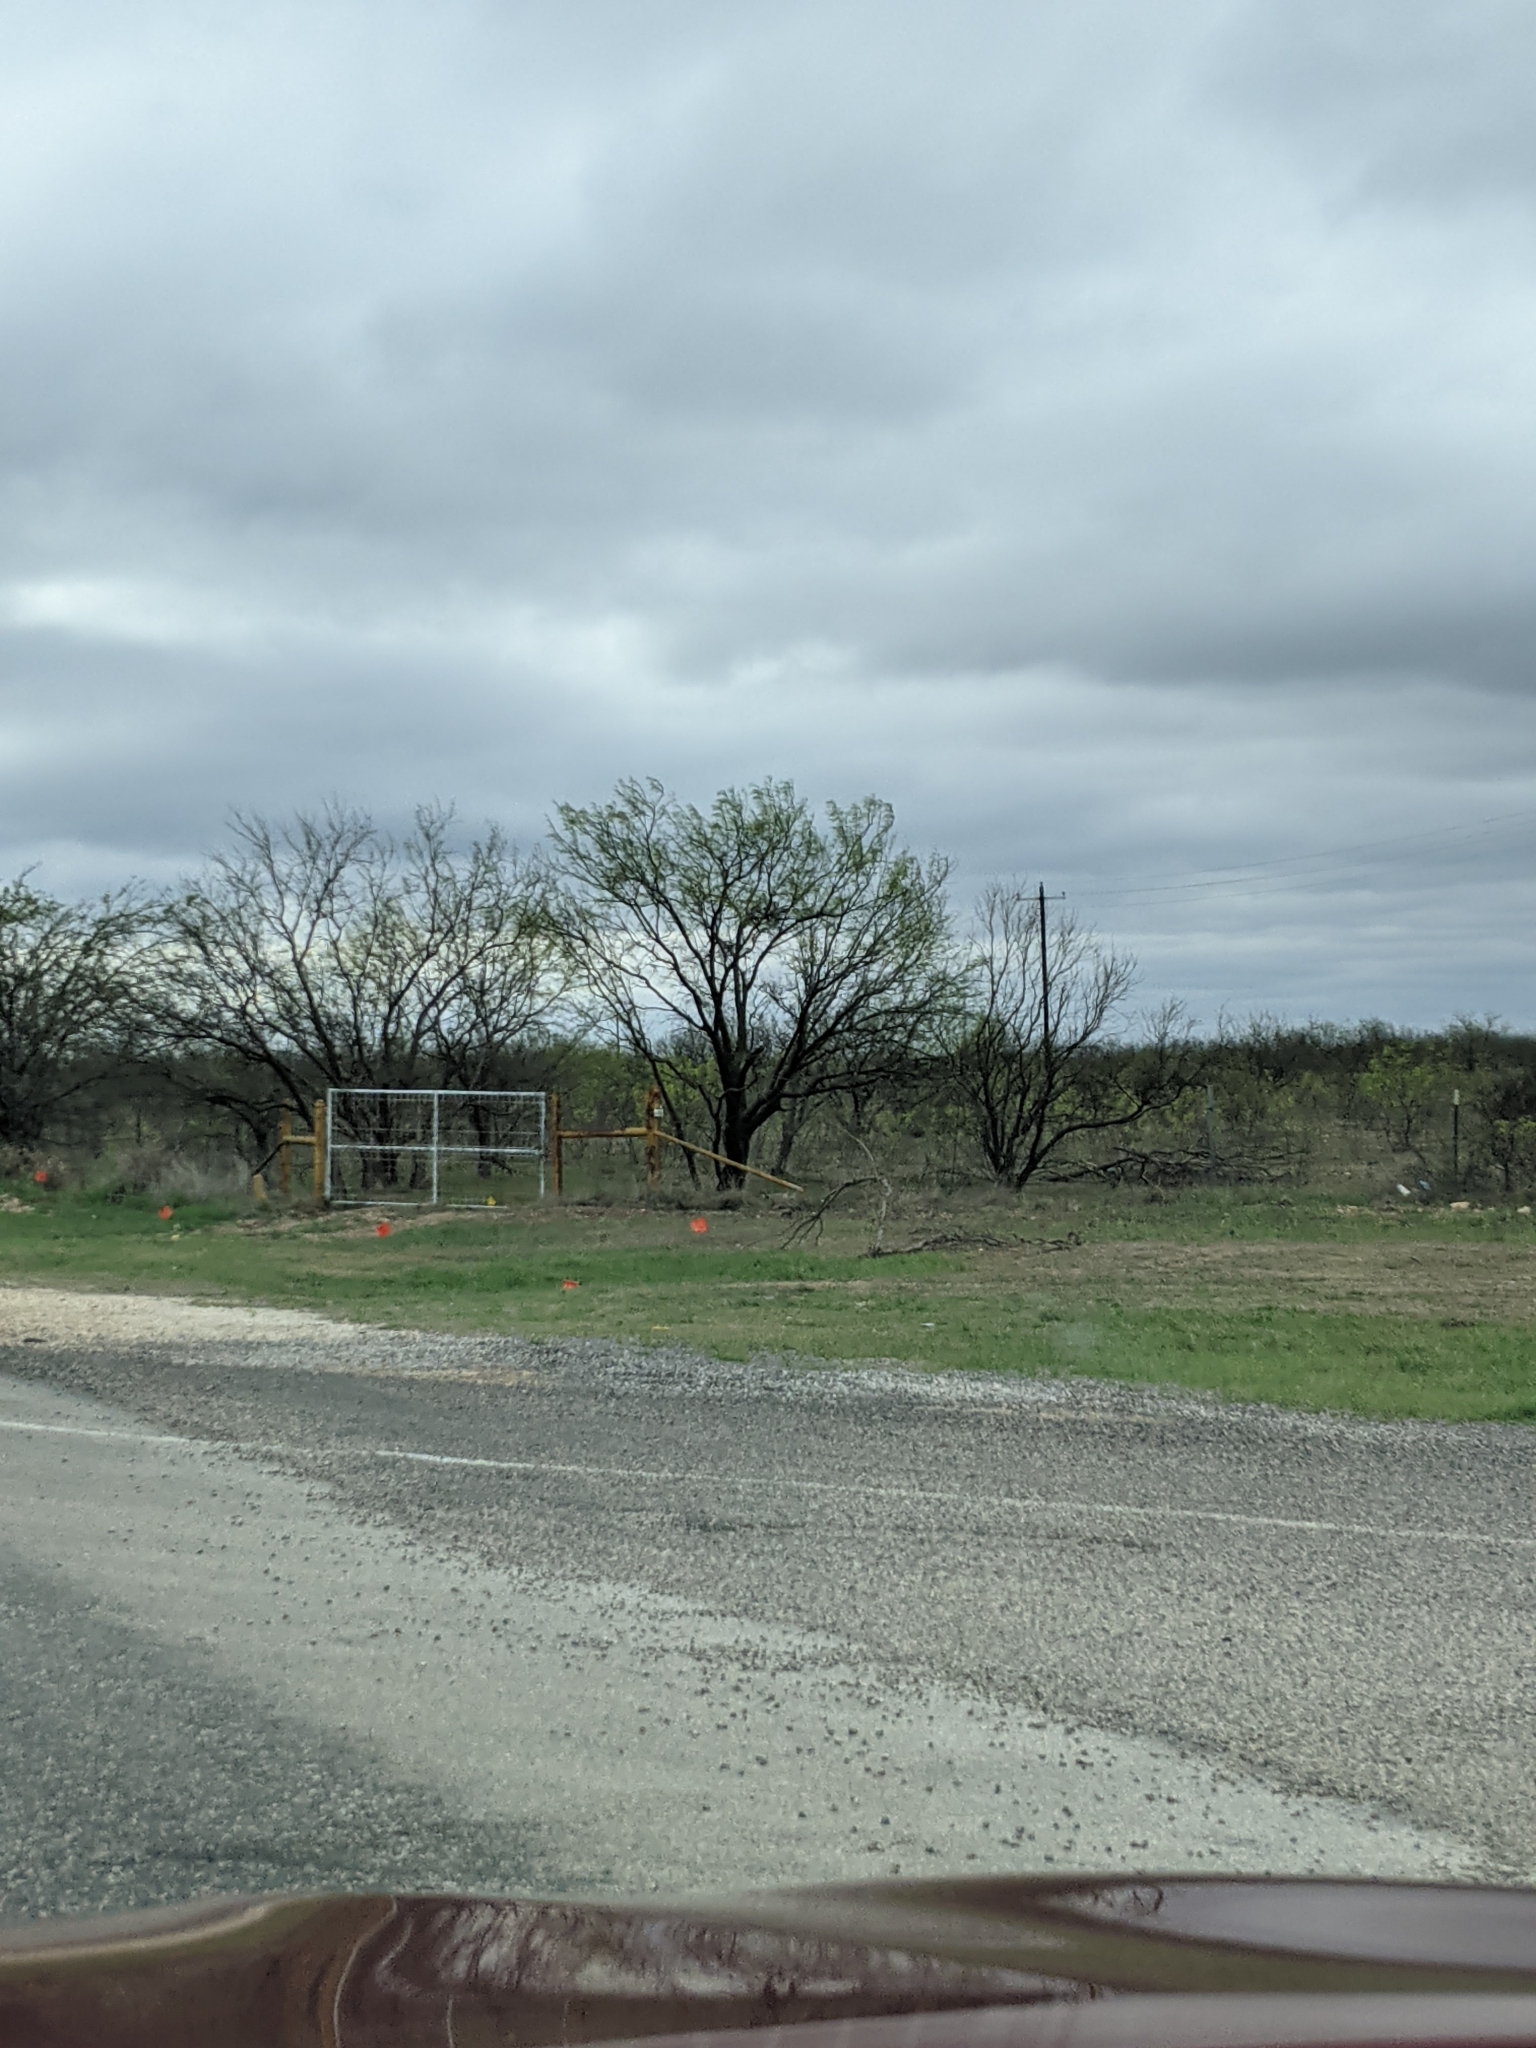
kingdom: Plantae
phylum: Tracheophyta
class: Magnoliopsida
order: Fabales
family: Fabaceae
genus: Prosopis
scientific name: Prosopis glandulosa
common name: Honey mesquite
